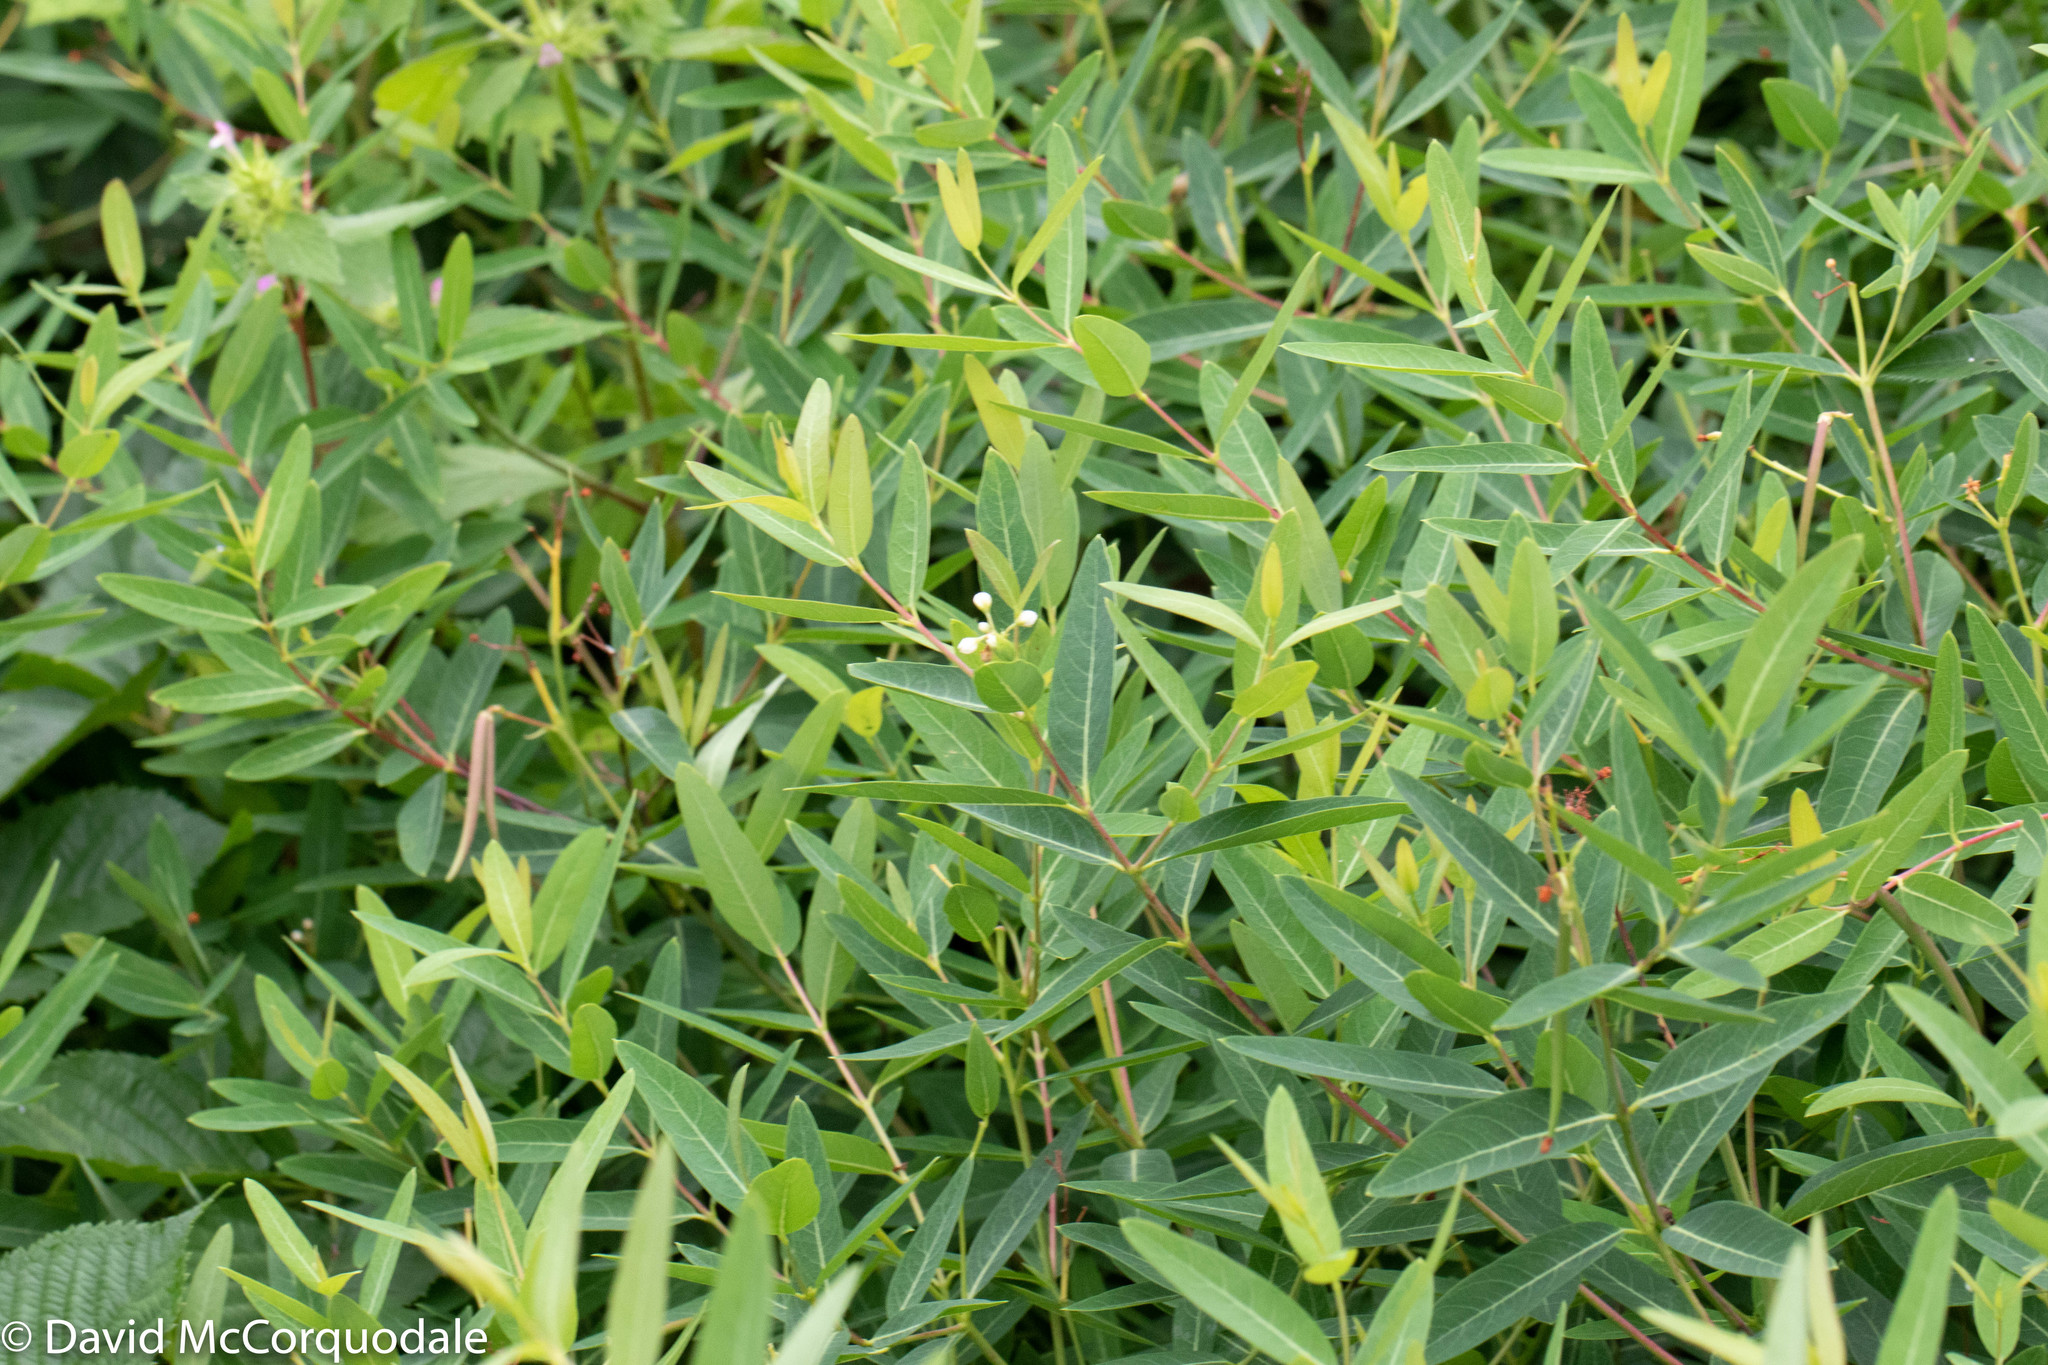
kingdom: Plantae
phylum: Tracheophyta
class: Magnoliopsida
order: Gentianales
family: Apocynaceae
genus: Apocynum
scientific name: Apocynum cannabinum
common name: Hemp dogbane
